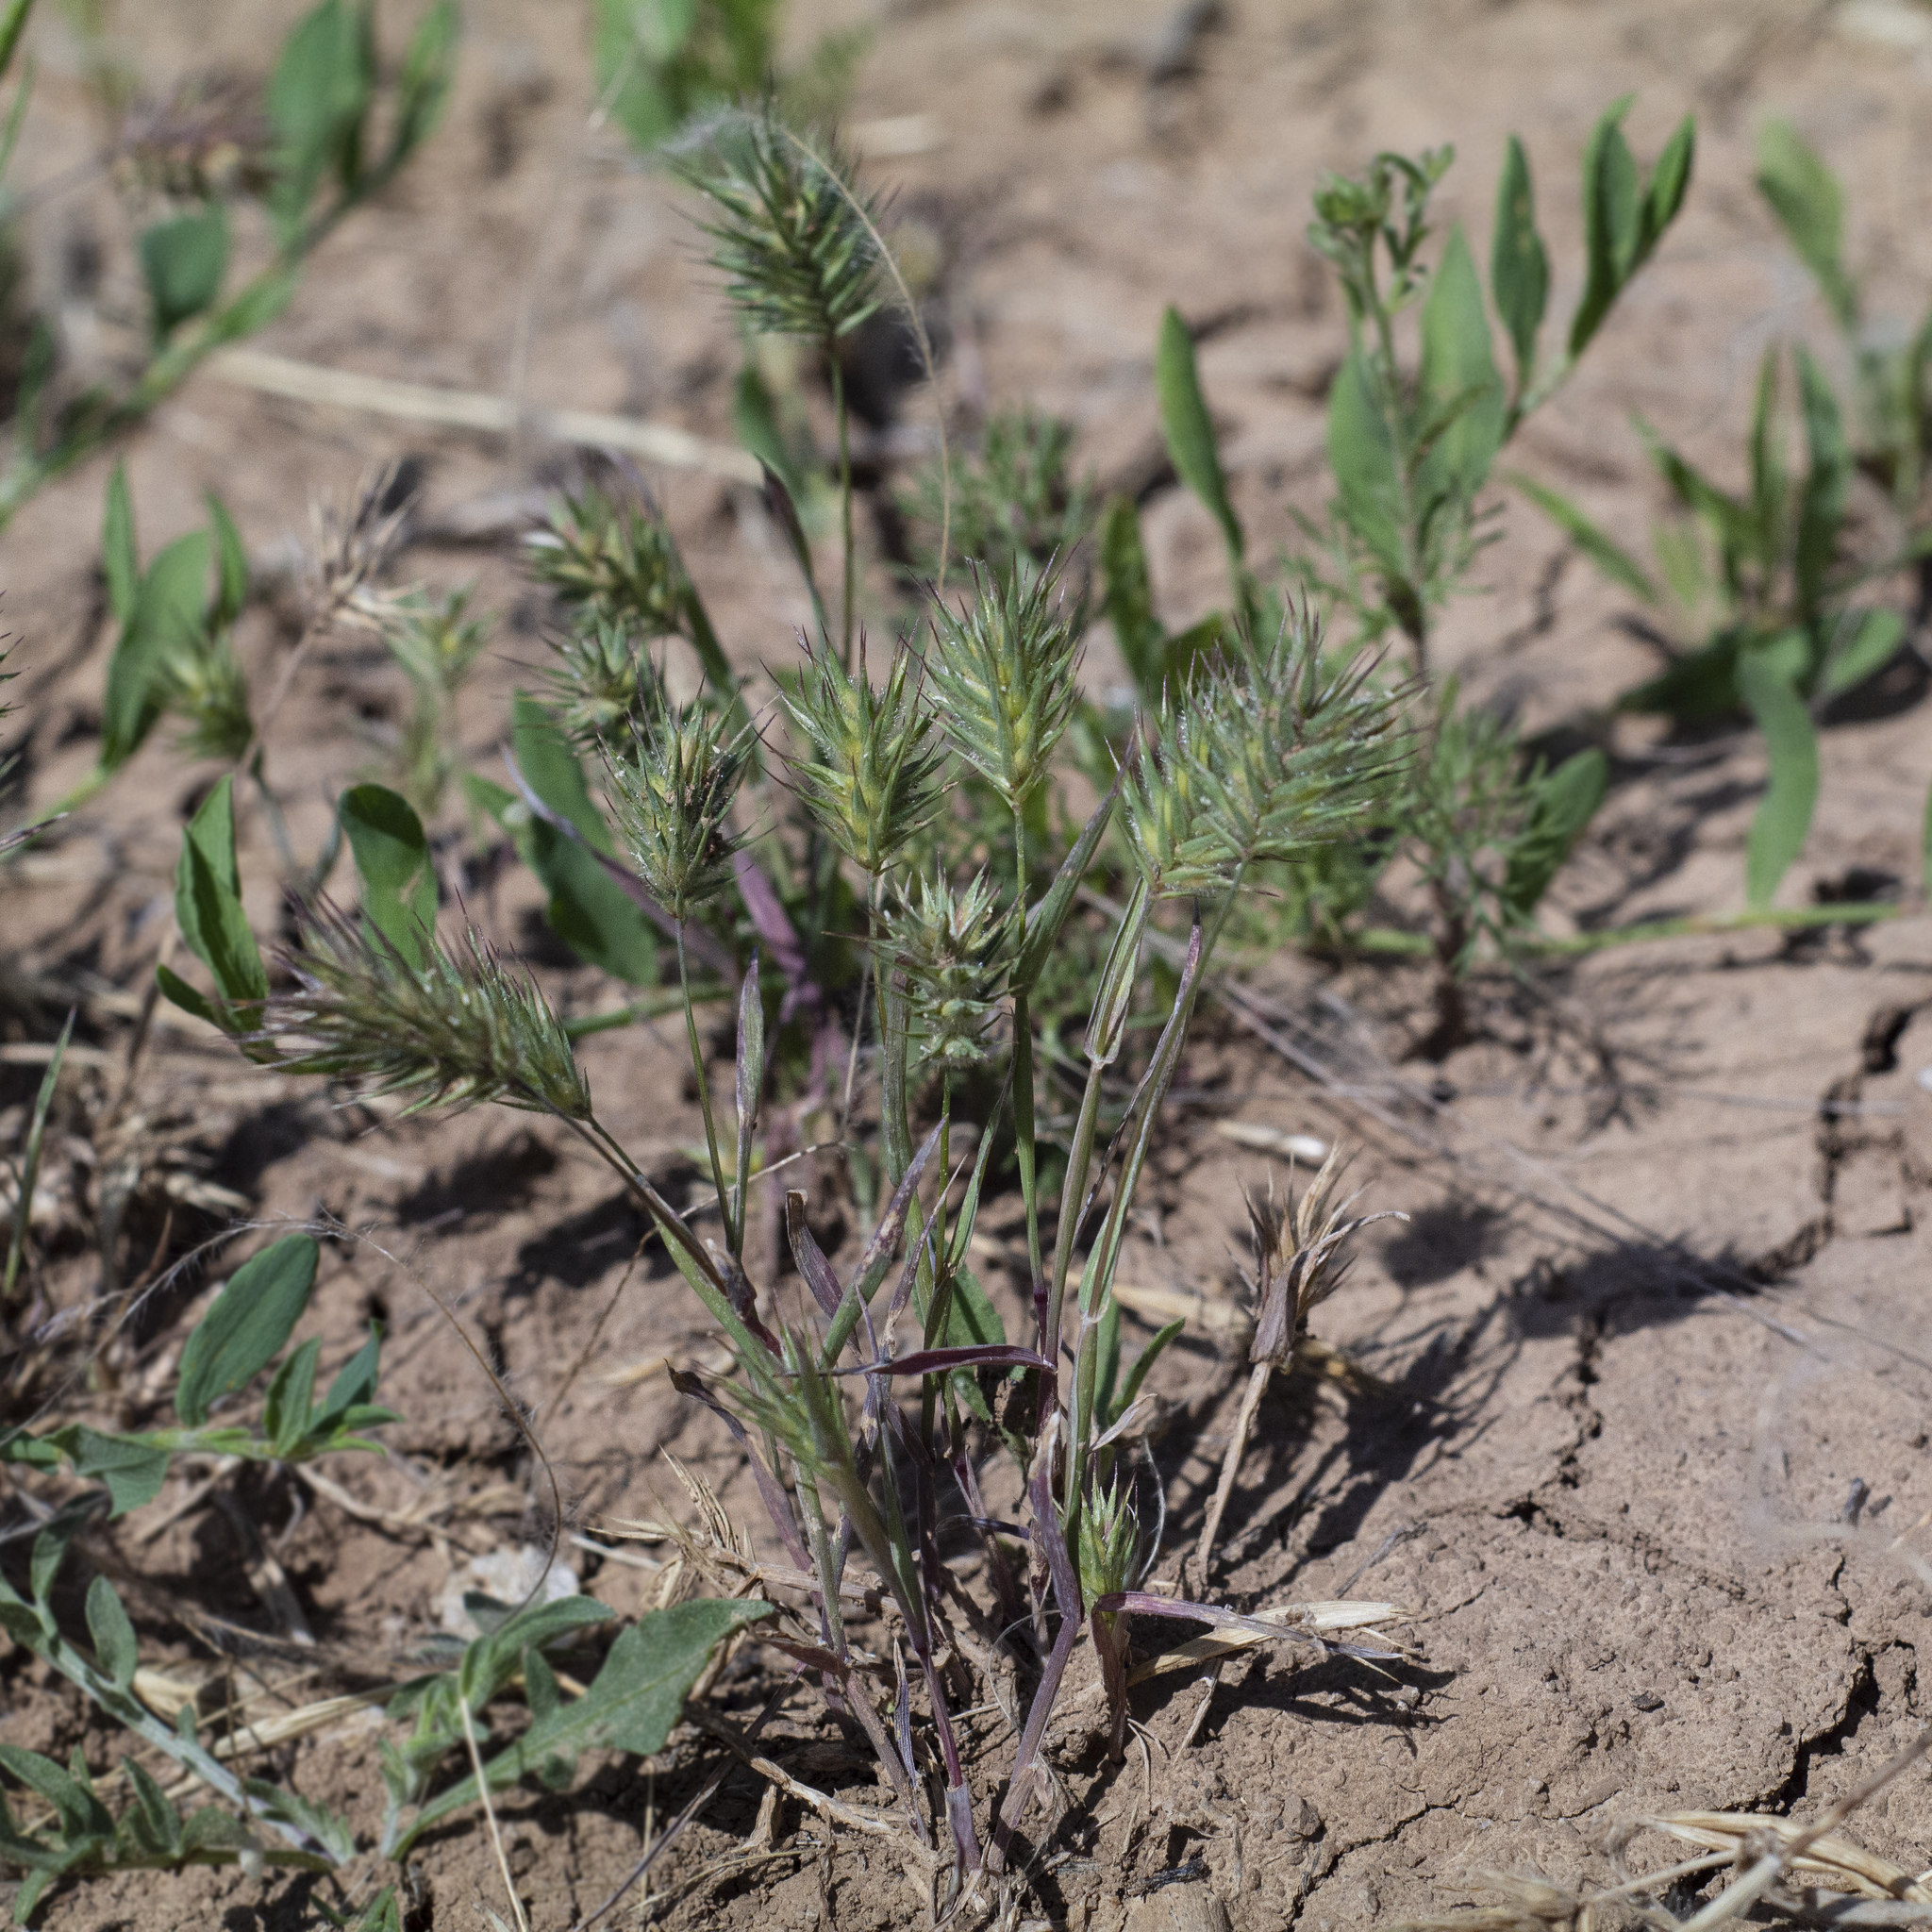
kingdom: Plantae
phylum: Tracheophyta
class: Liliopsida
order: Poales
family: Poaceae
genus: Eremopyrum
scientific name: Eremopyrum orientale
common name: Oriental false wheatgrass
